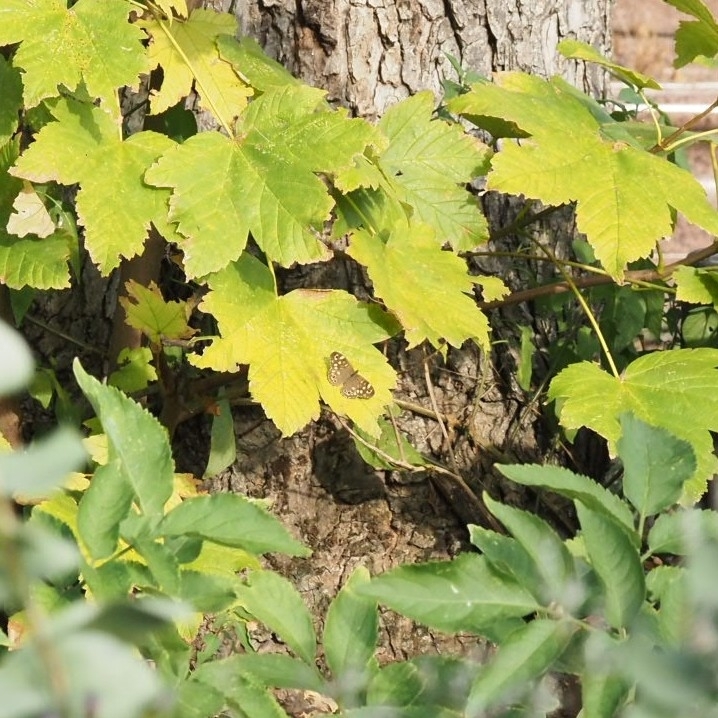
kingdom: Animalia
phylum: Arthropoda
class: Insecta
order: Lepidoptera
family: Nymphalidae
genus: Pararge
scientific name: Pararge aegeria
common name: Speckled wood
